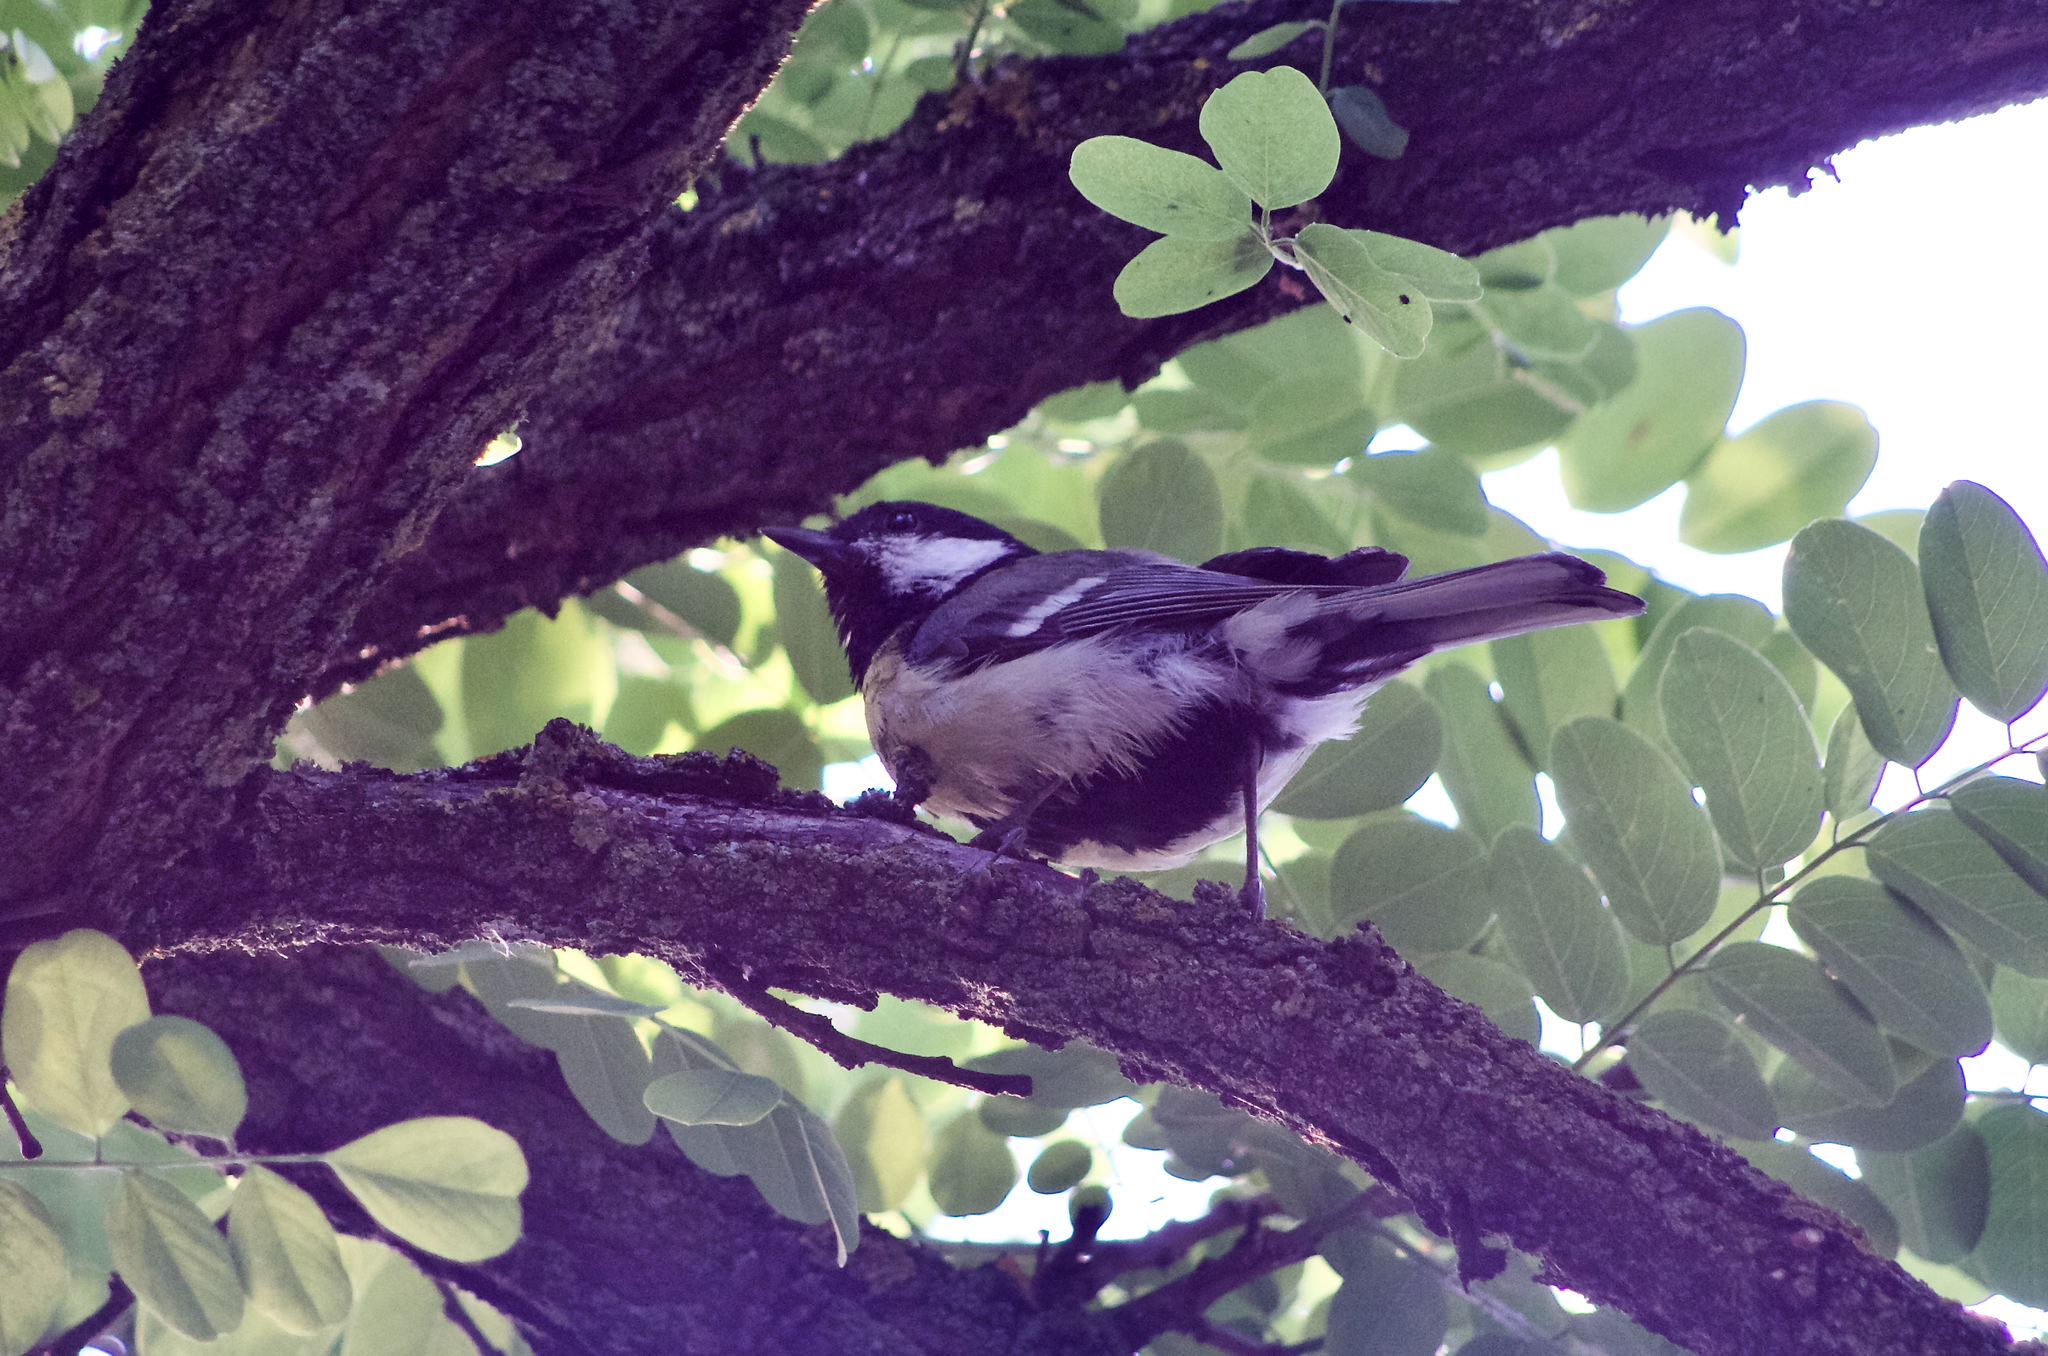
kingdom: Animalia
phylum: Chordata
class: Aves
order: Passeriformes
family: Paridae
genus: Parus
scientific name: Parus major
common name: Great tit
